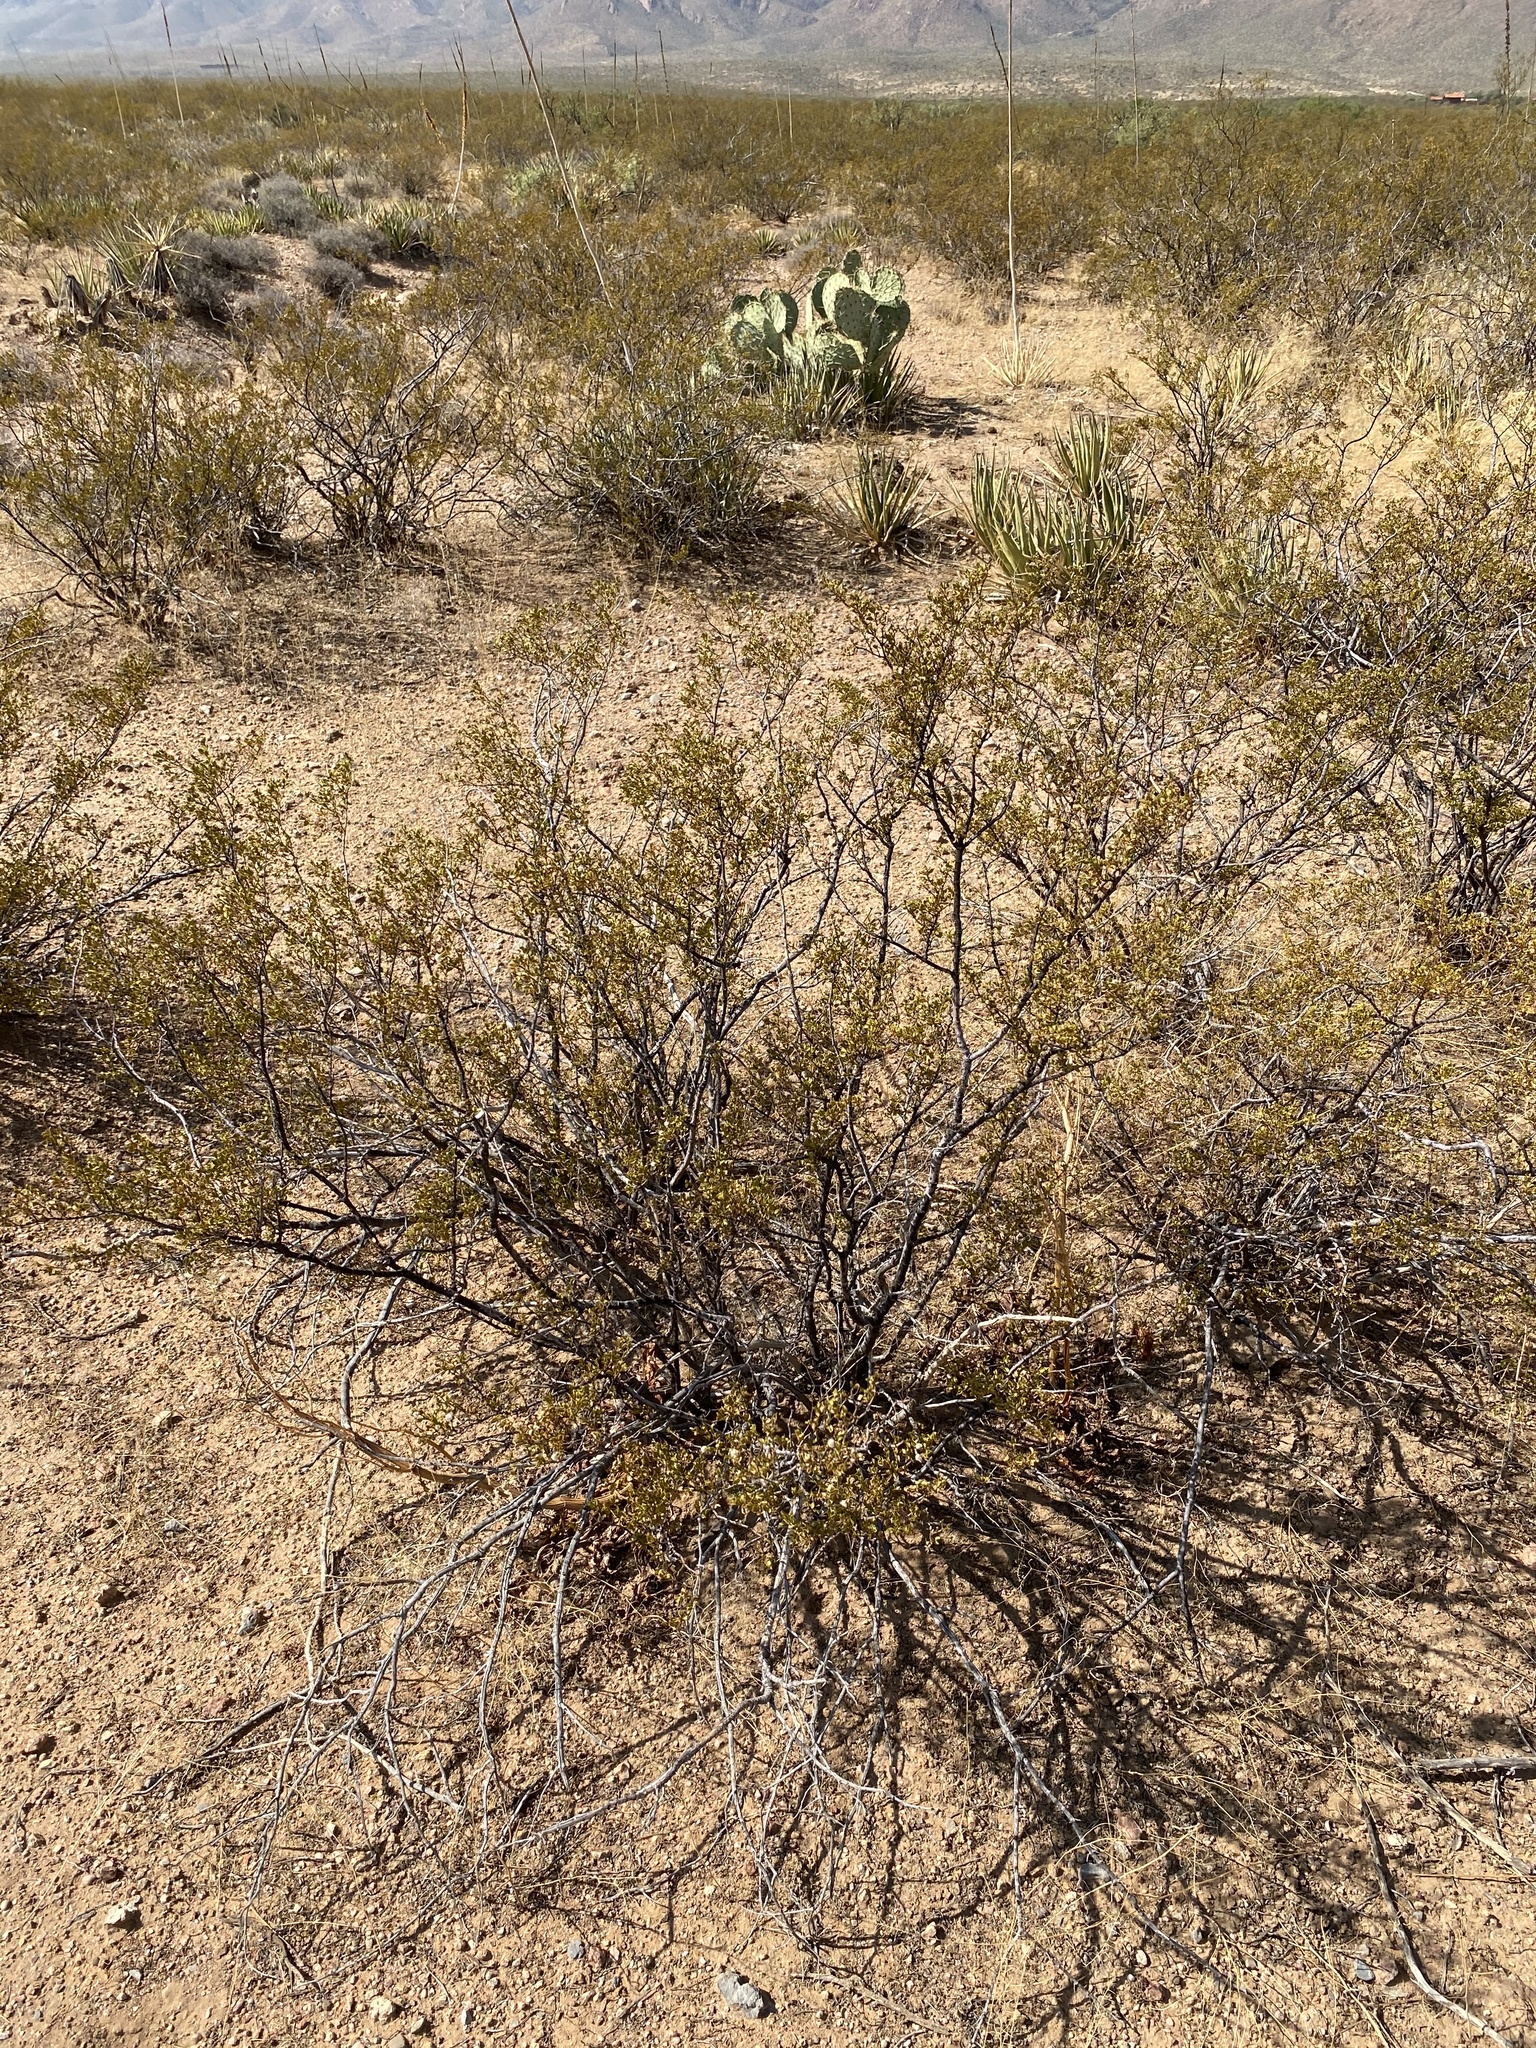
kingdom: Plantae
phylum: Tracheophyta
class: Magnoliopsida
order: Zygophyllales
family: Zygophyllaceae
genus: Larrea
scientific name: Larrea tridentata
